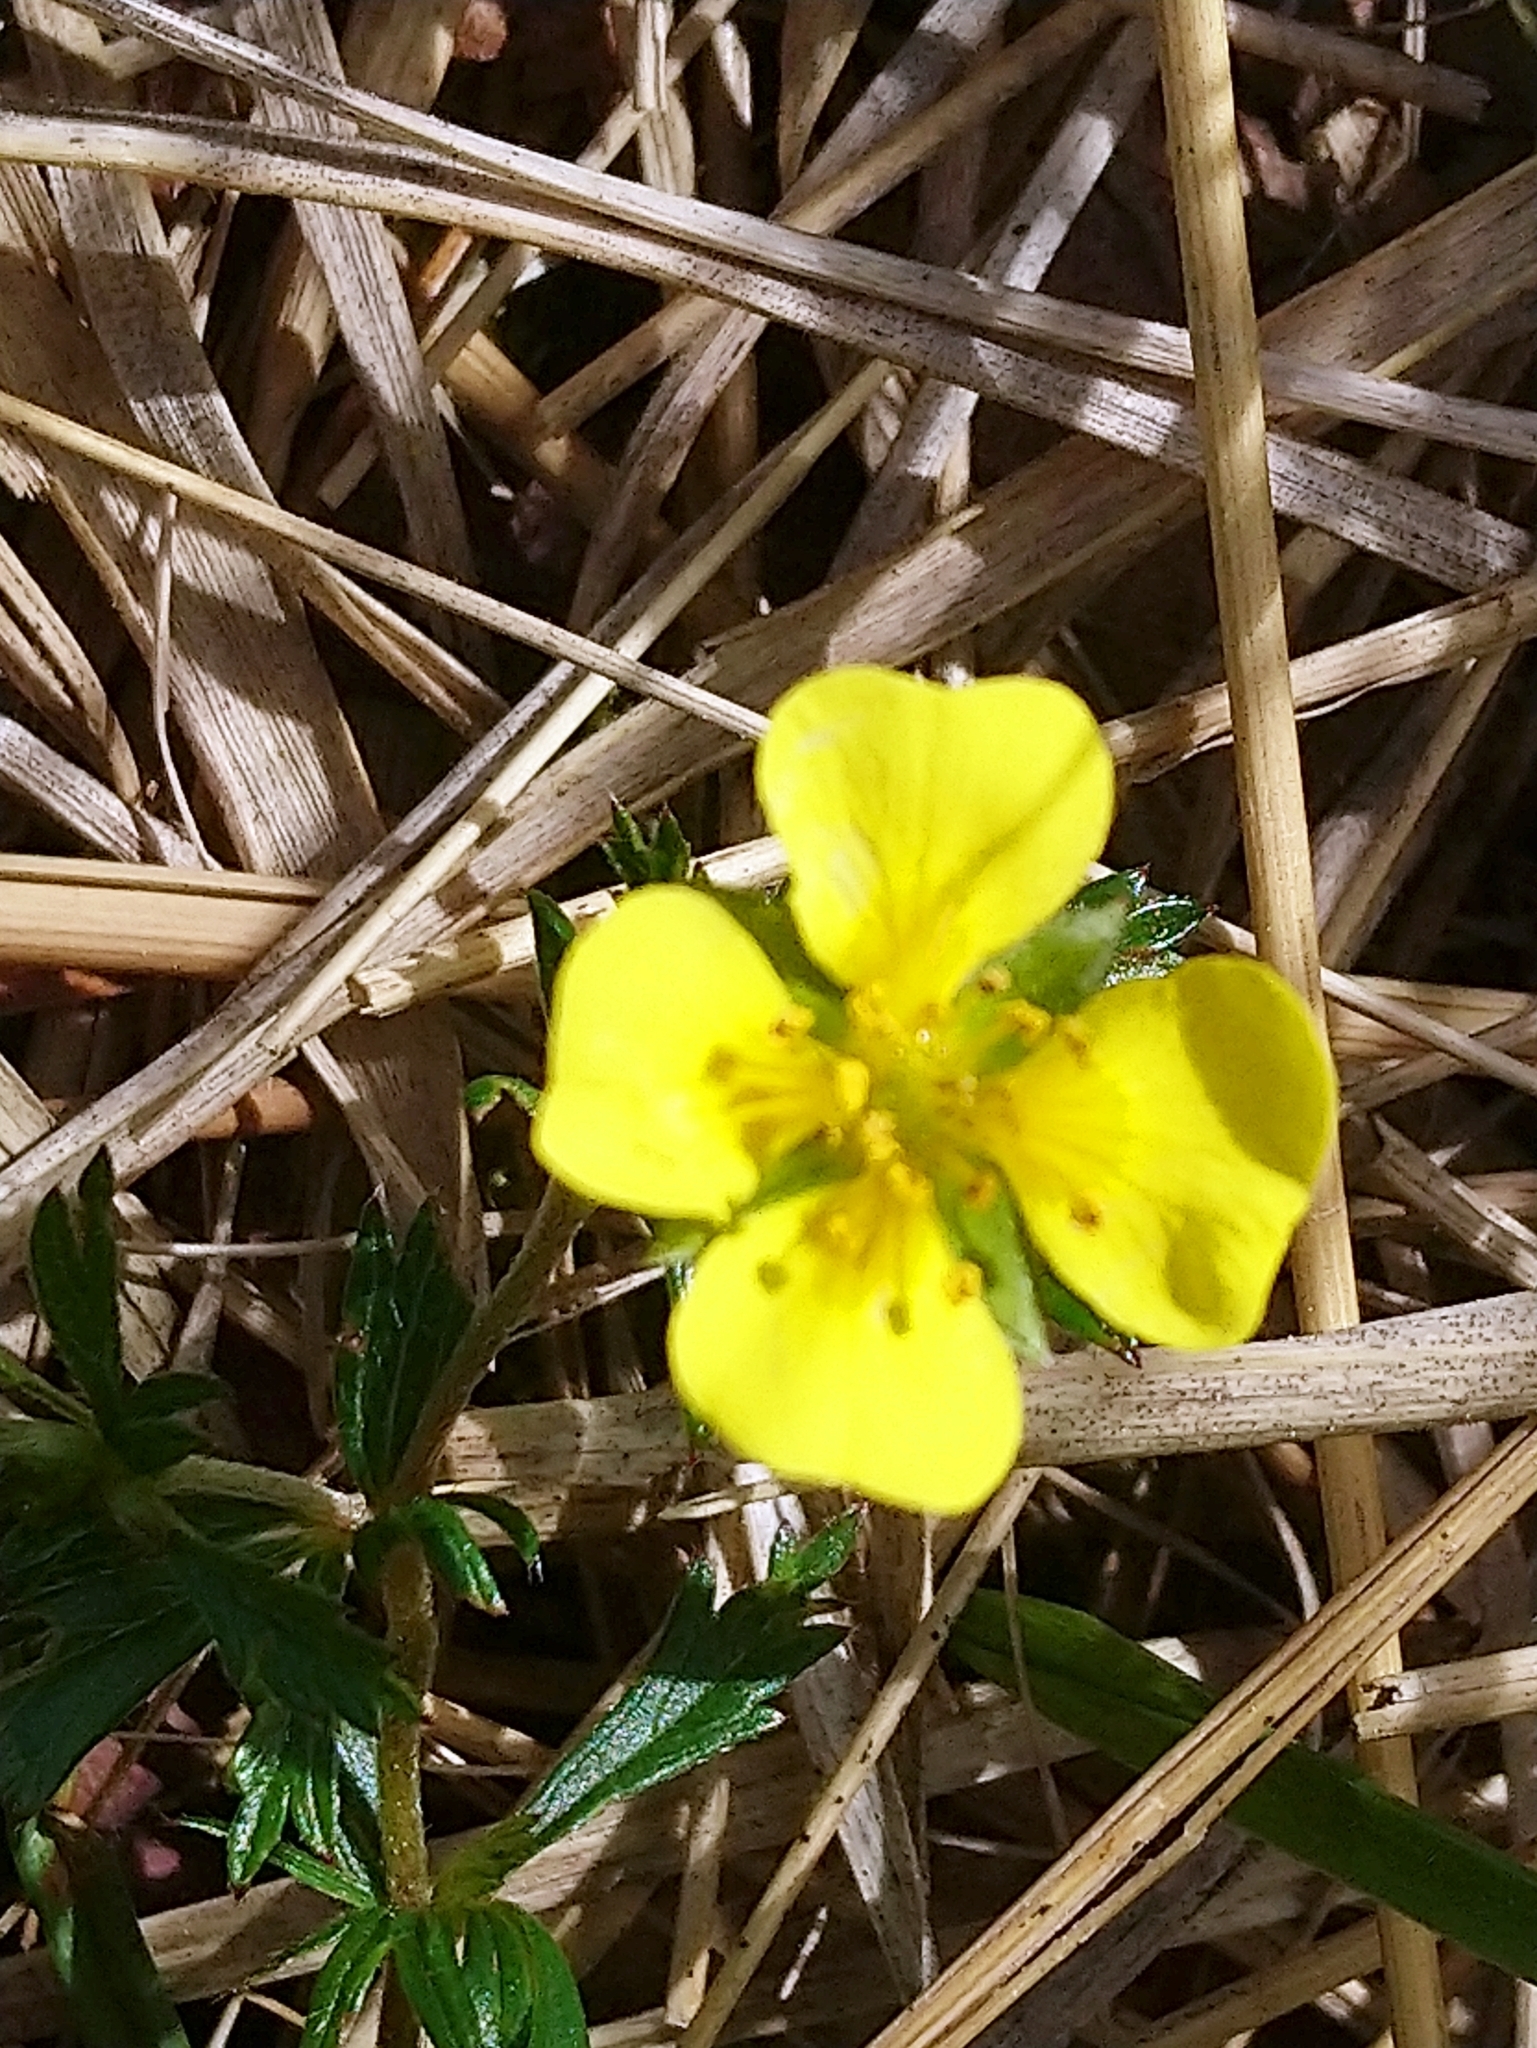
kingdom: Plantae
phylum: Tracheophyta
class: Magnoliopsida
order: Rosales
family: Rosaceae
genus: Potentilla
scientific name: Potentilla erecta
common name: Tormentil
